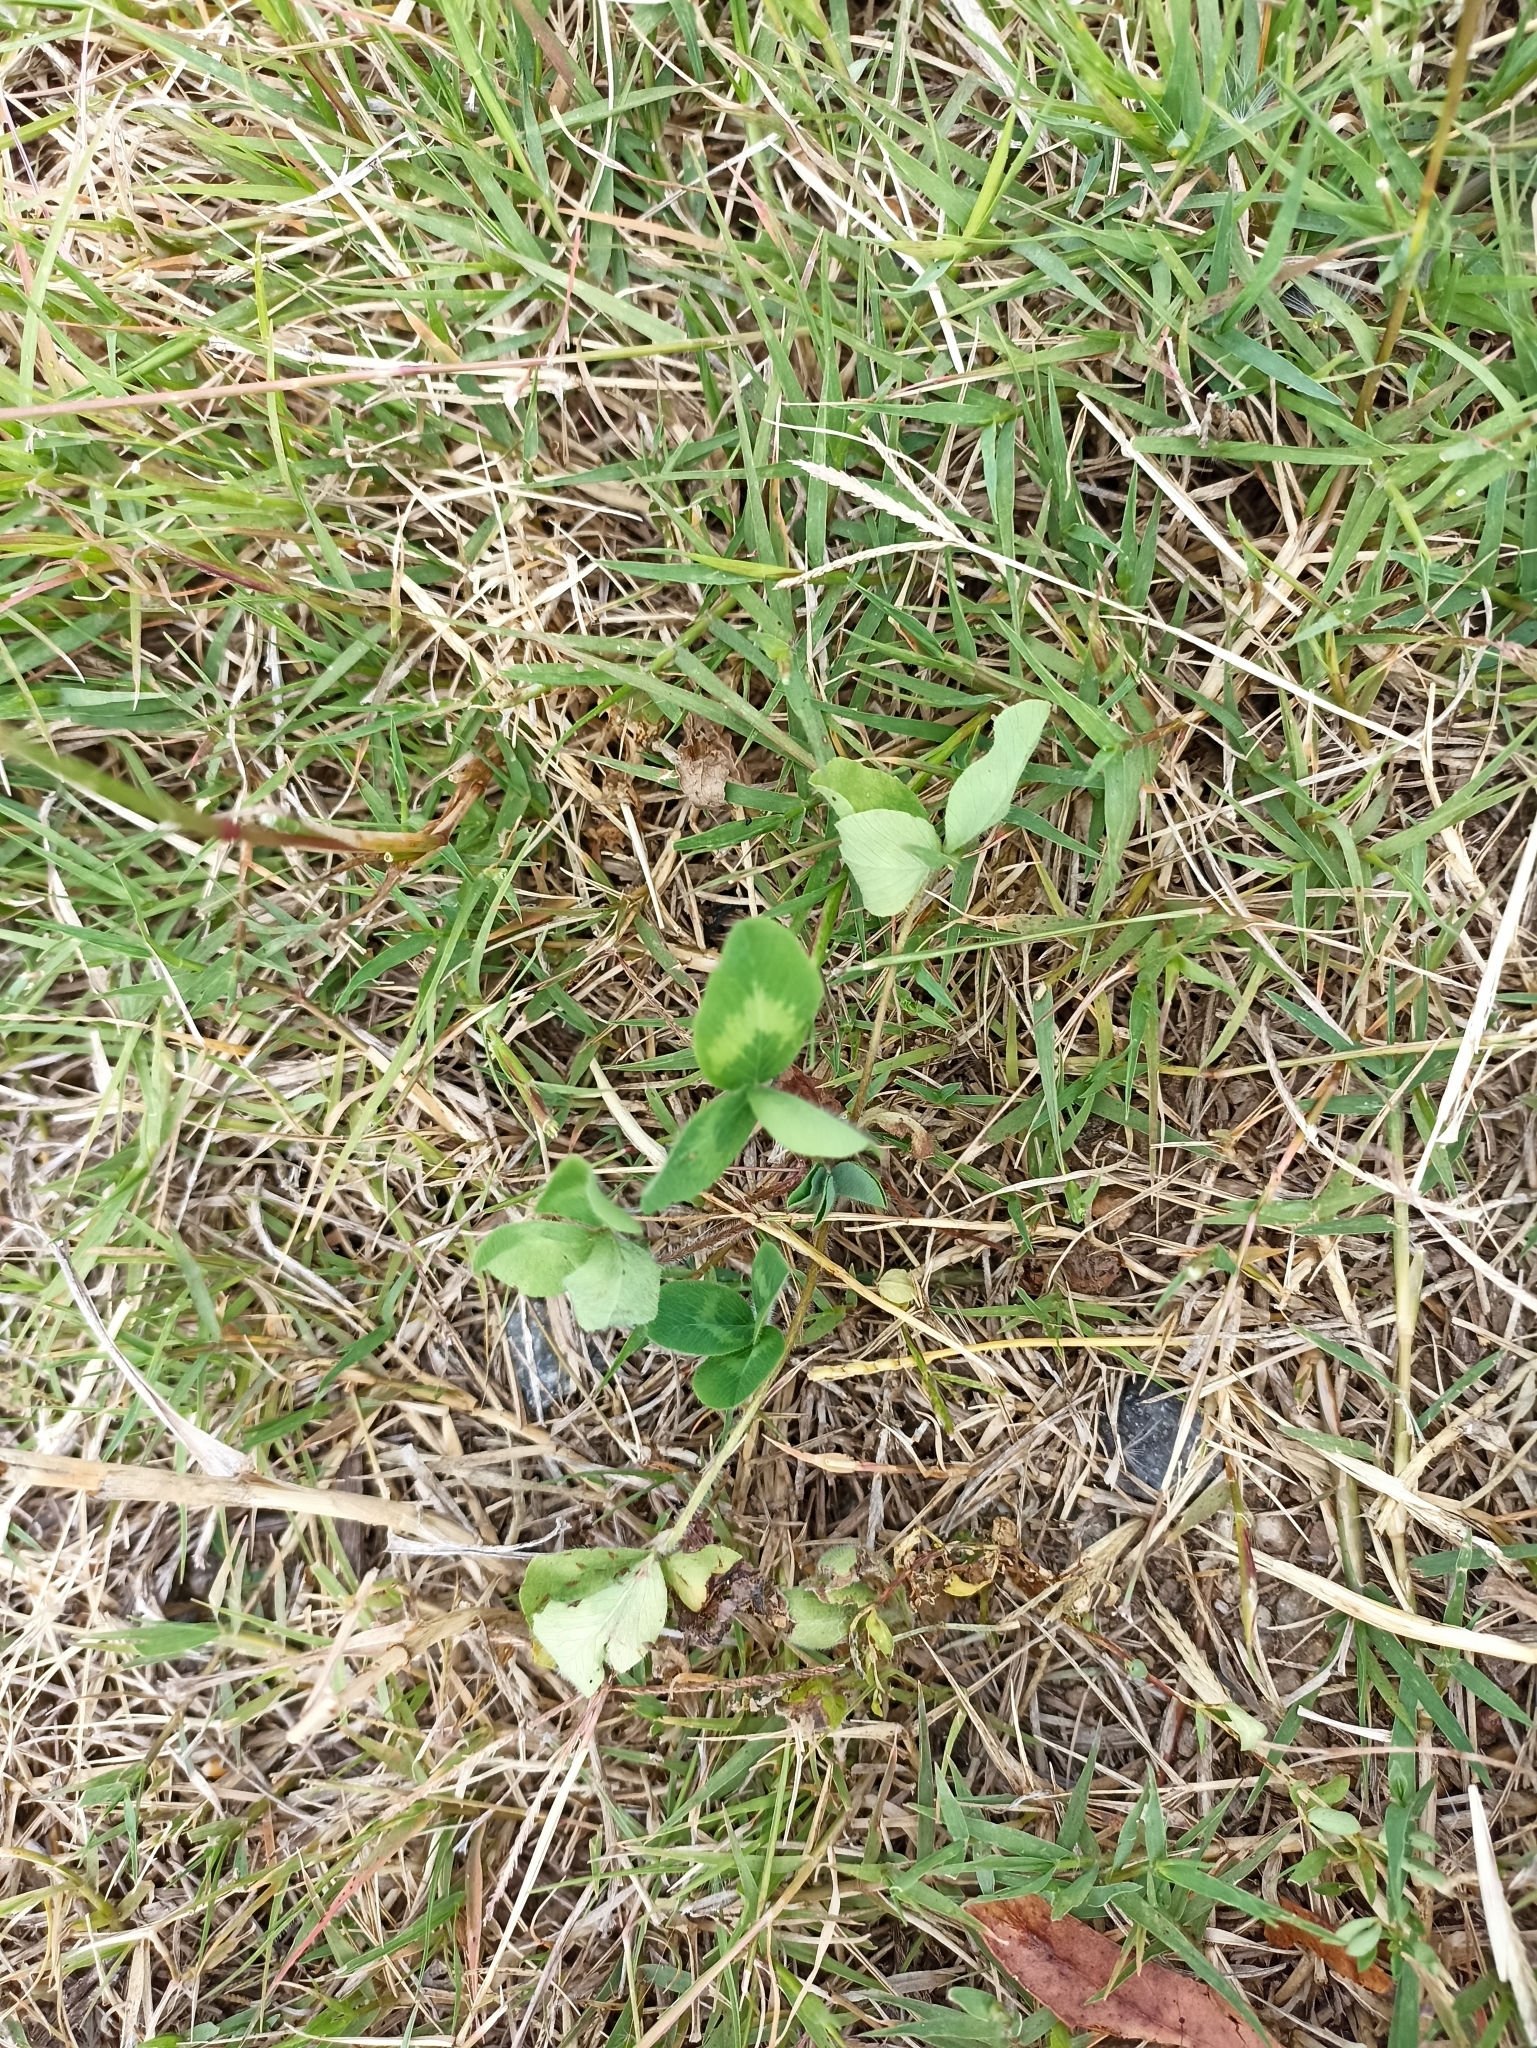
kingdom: Plantae
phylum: Tracheophyta
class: Magnoliopsida
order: Fabales
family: Fabaceae
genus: Trifolium
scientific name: Trifolium pratense
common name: Red clover
